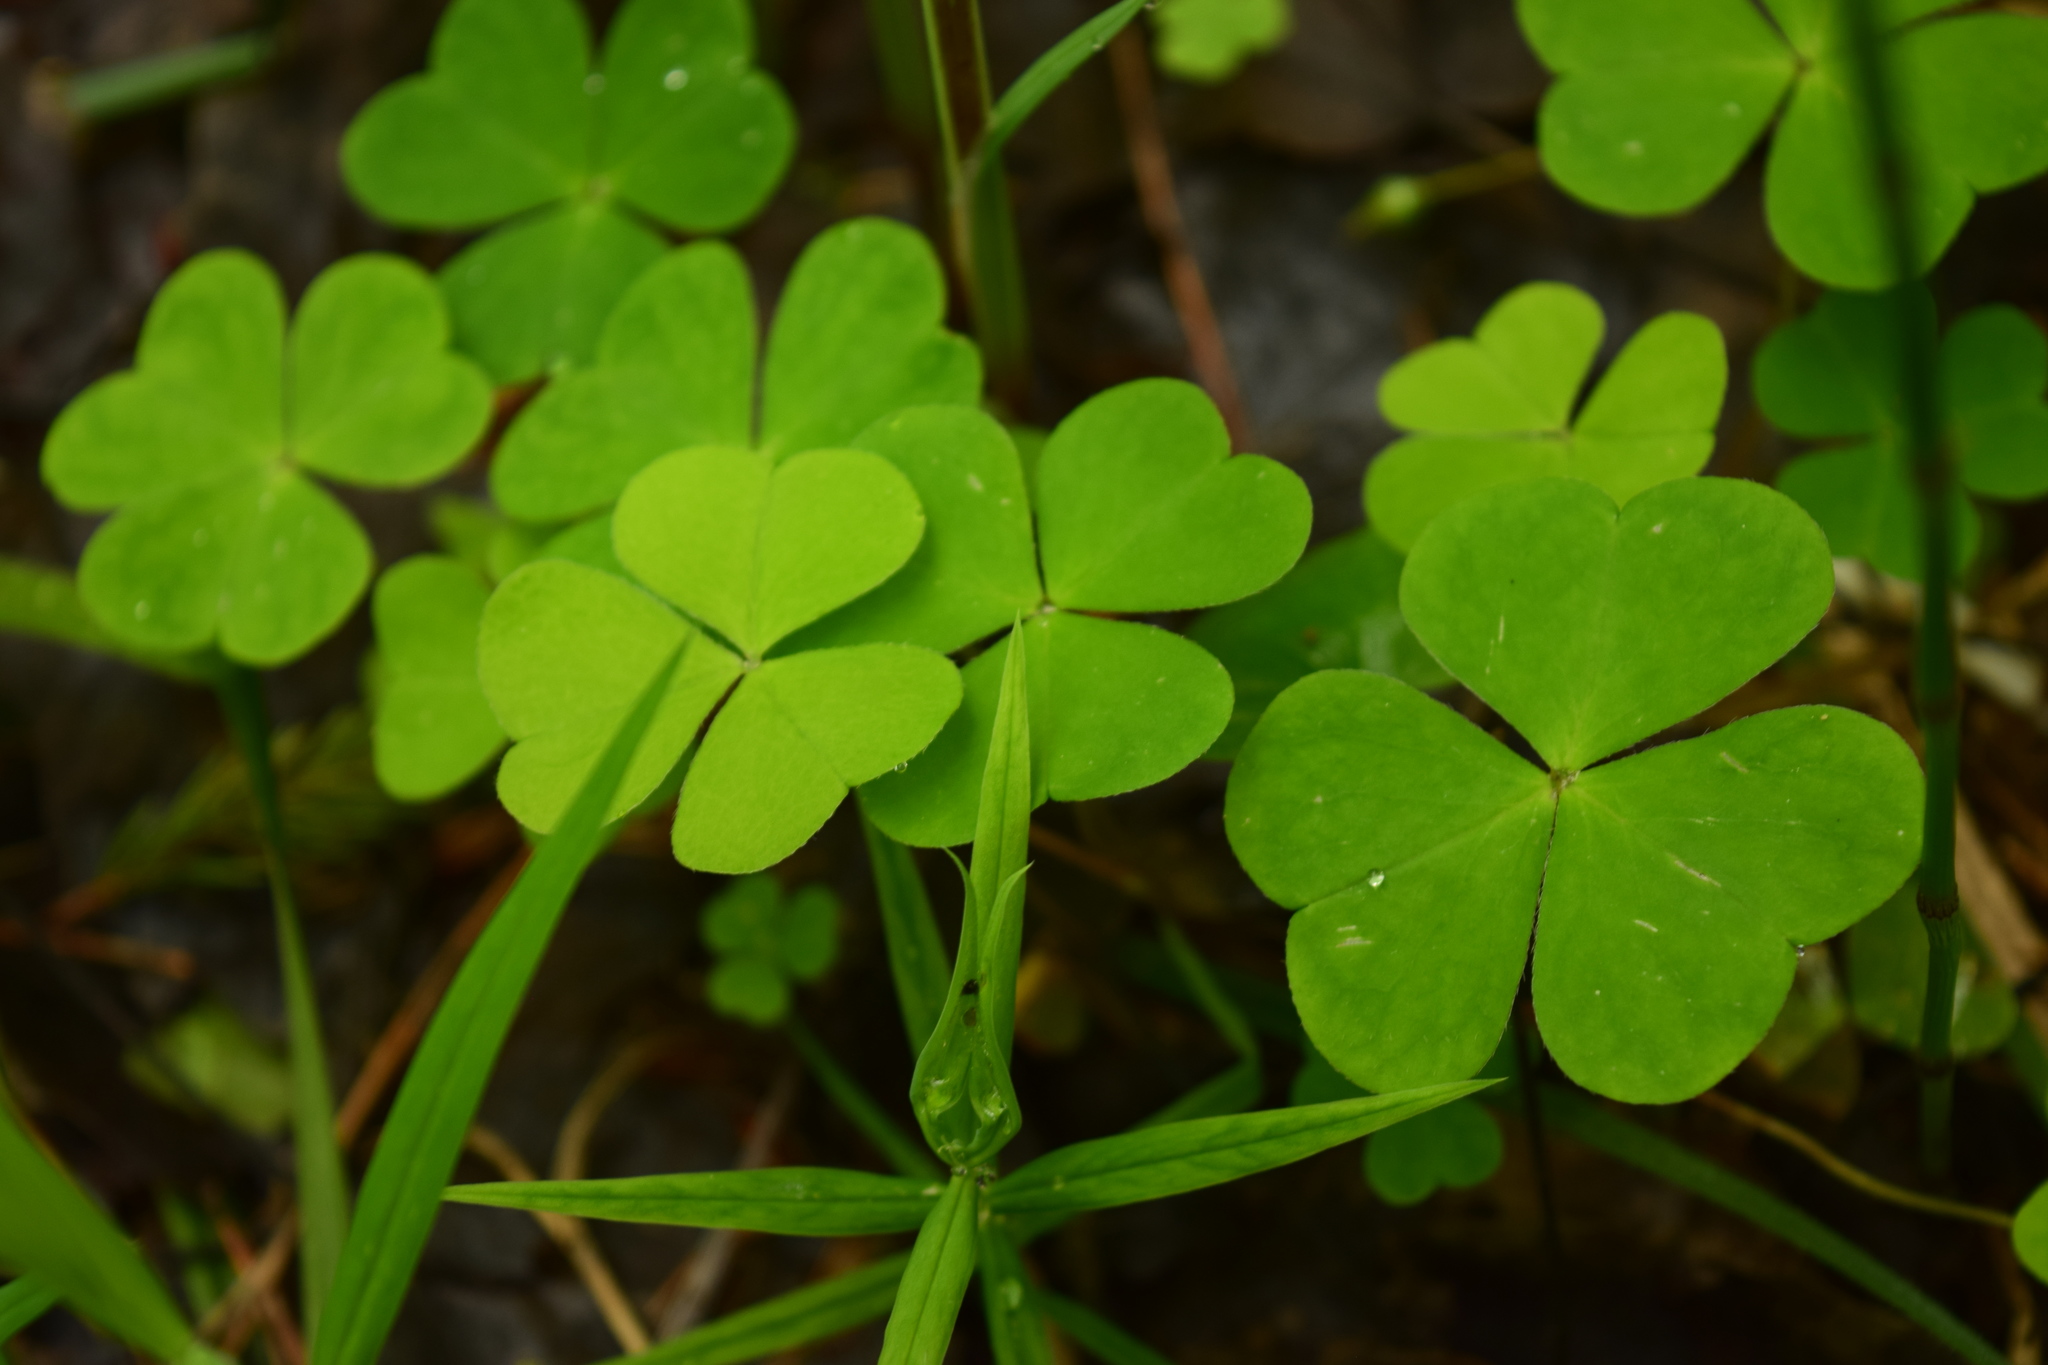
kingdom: Plantae
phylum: Tracheophyta
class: Magnoliopsida
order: Oxalidales
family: Oxalidaceae
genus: Oxalis
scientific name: Oxalis acetosella
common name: Wood-sorrel
